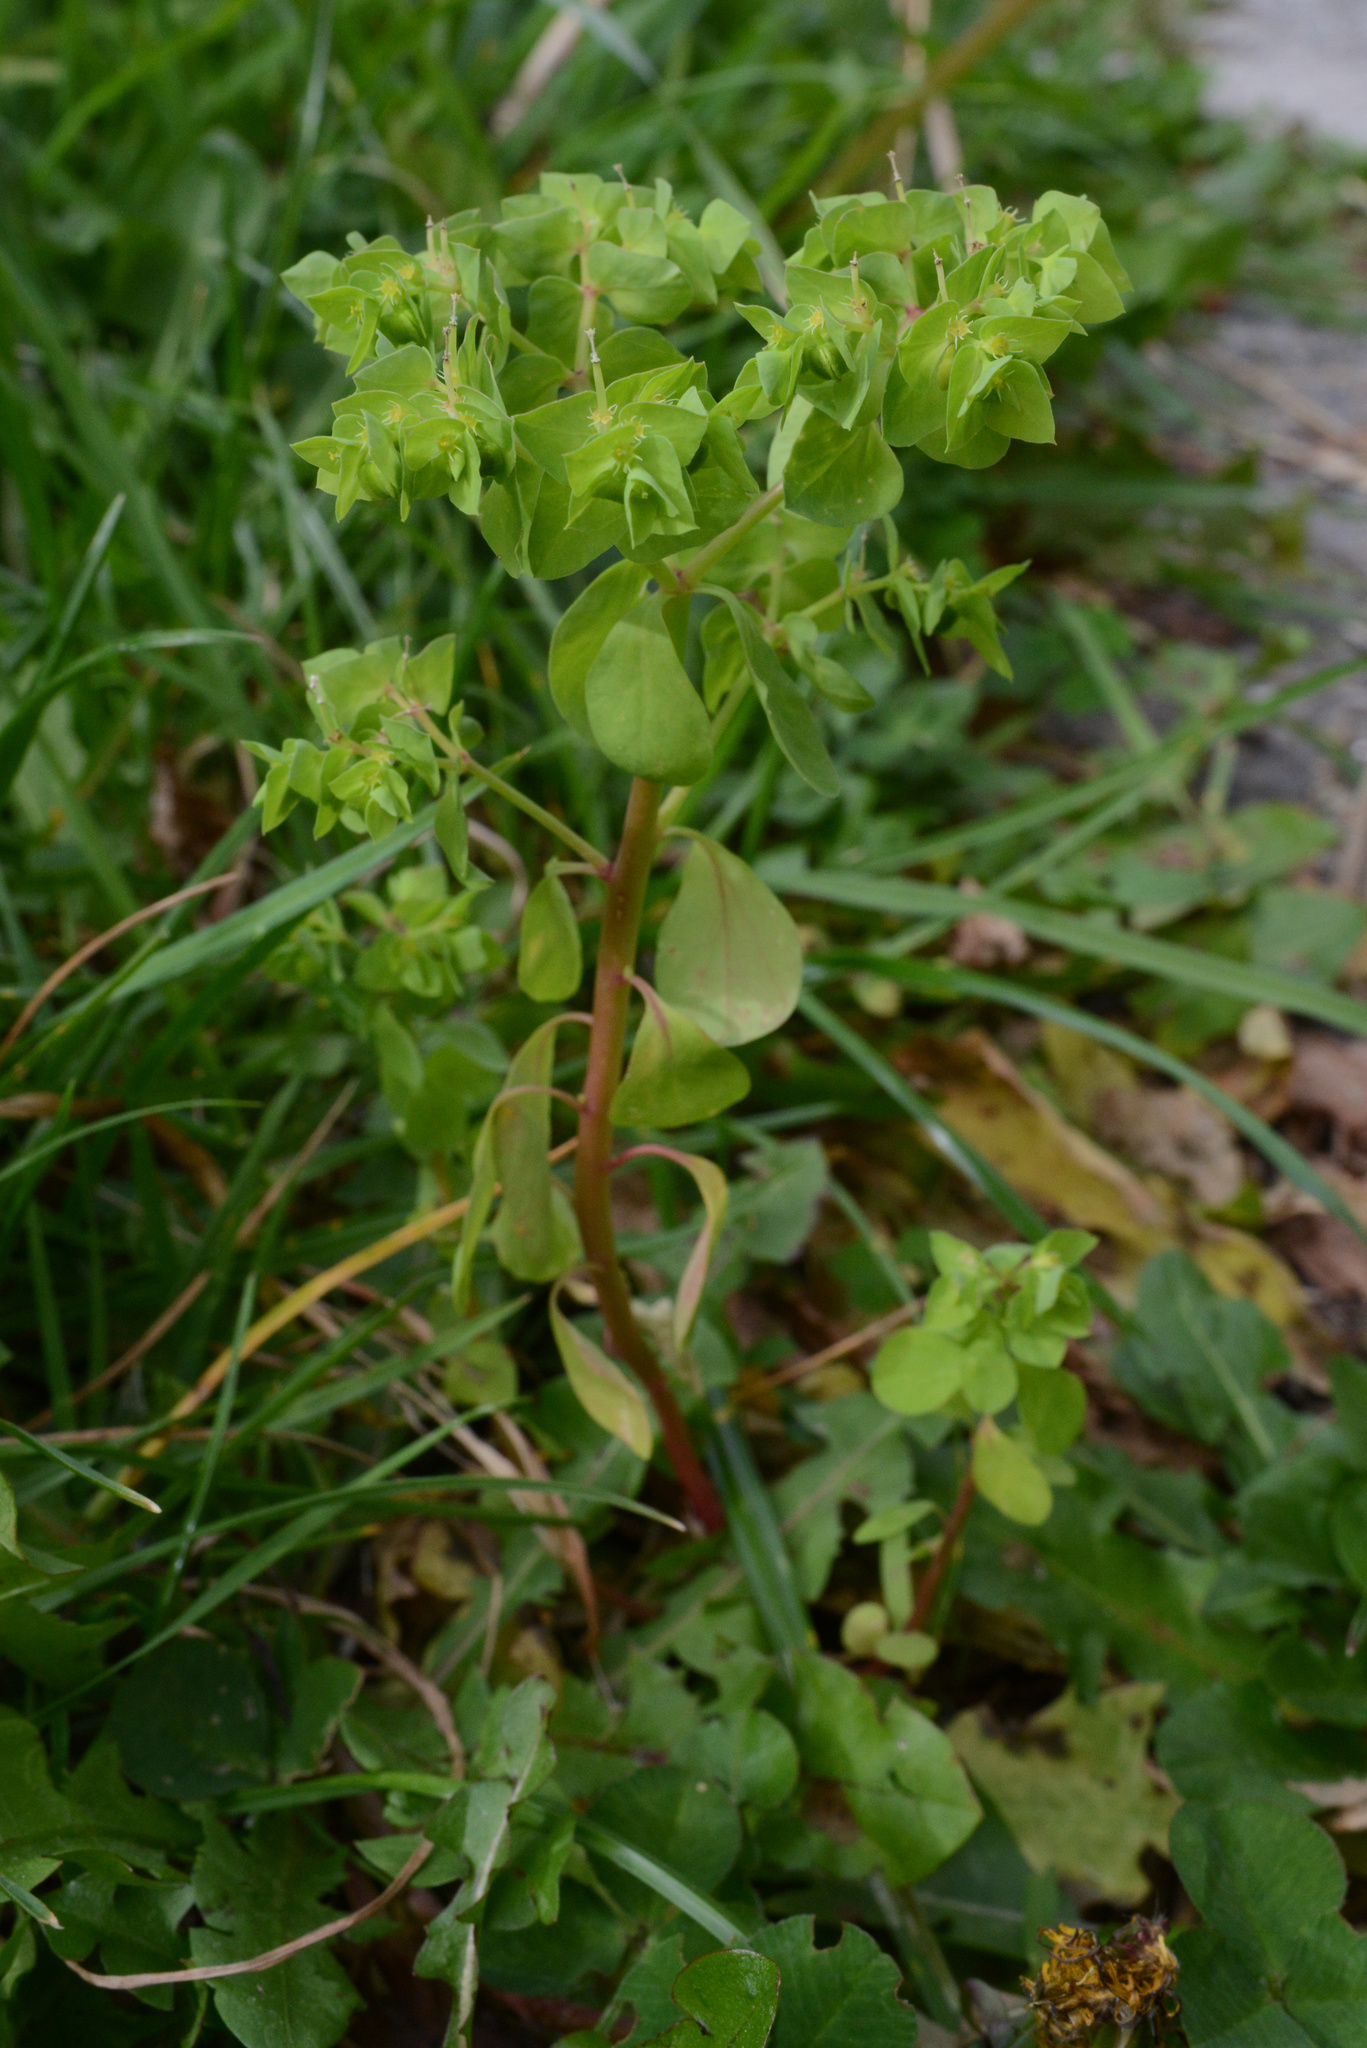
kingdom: Plantae
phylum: Tracheophyta
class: Magnoliopsida
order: Malpighiales
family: Euphorbiaceae
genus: Euphorbia
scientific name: Euphorbia peplus
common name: Petty spurge
